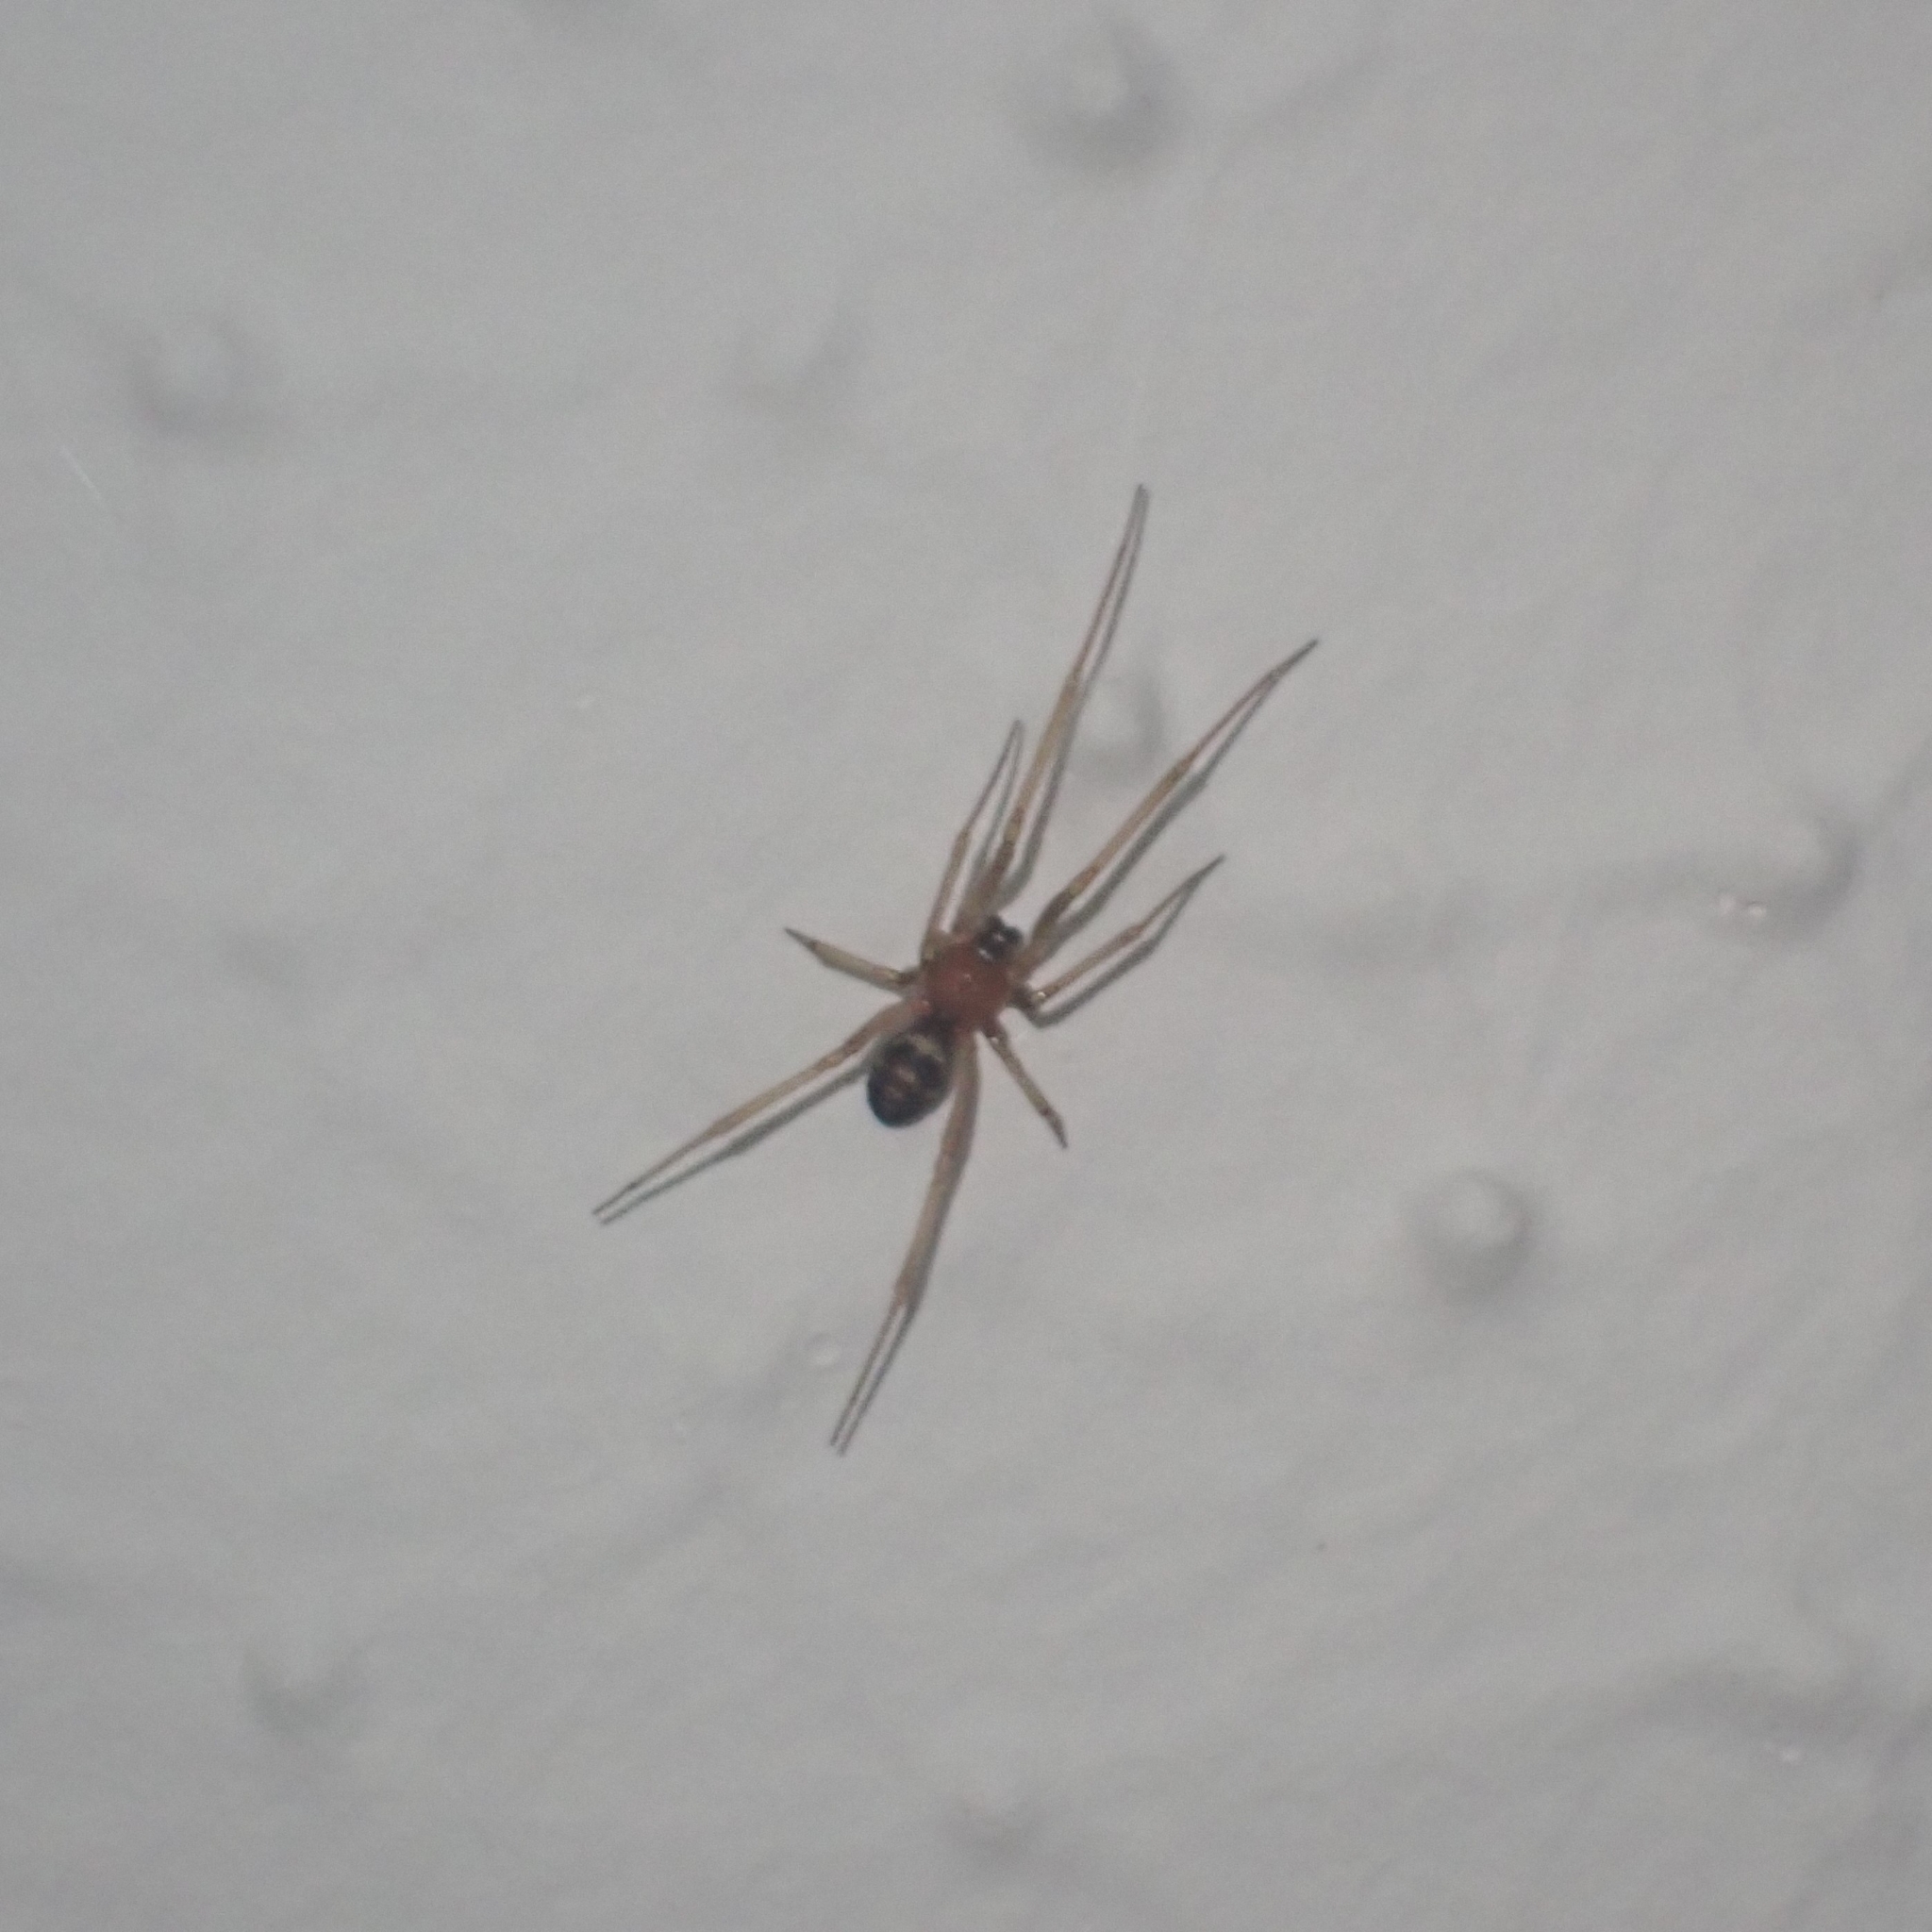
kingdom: Animalia
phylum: Arthropoda
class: Arachnida
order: Araneae
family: Theridiidae
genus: Steatoda
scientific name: Steatoda grossa
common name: False black widow
